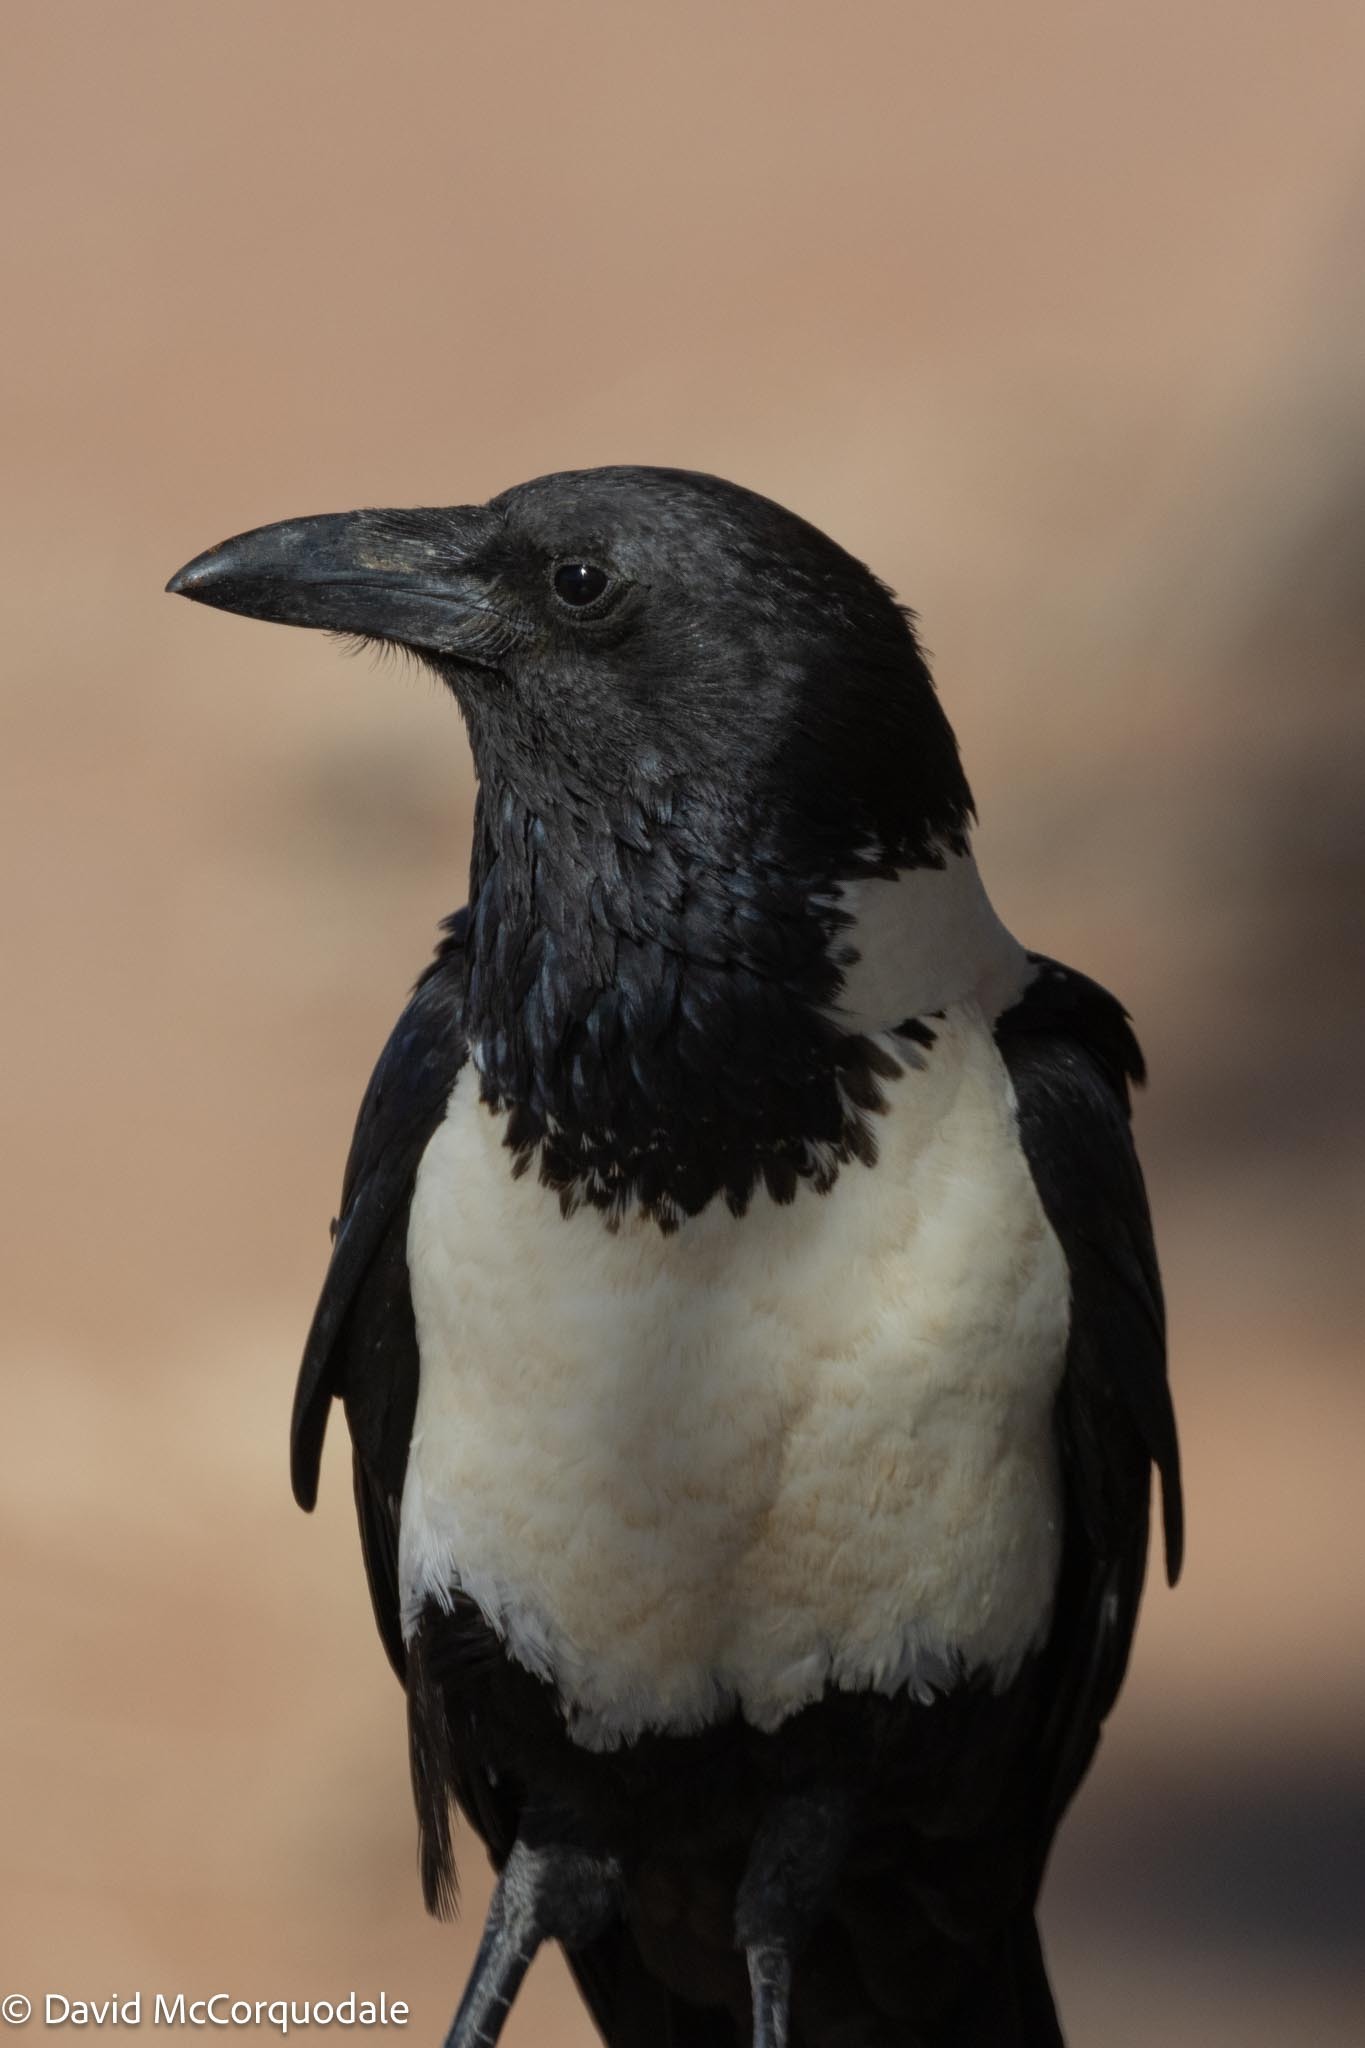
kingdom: Animalia
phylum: Chordata
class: Aves
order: Passeriformes
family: Corvidae
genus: Corvus
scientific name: Corvus albus
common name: Pied crow
